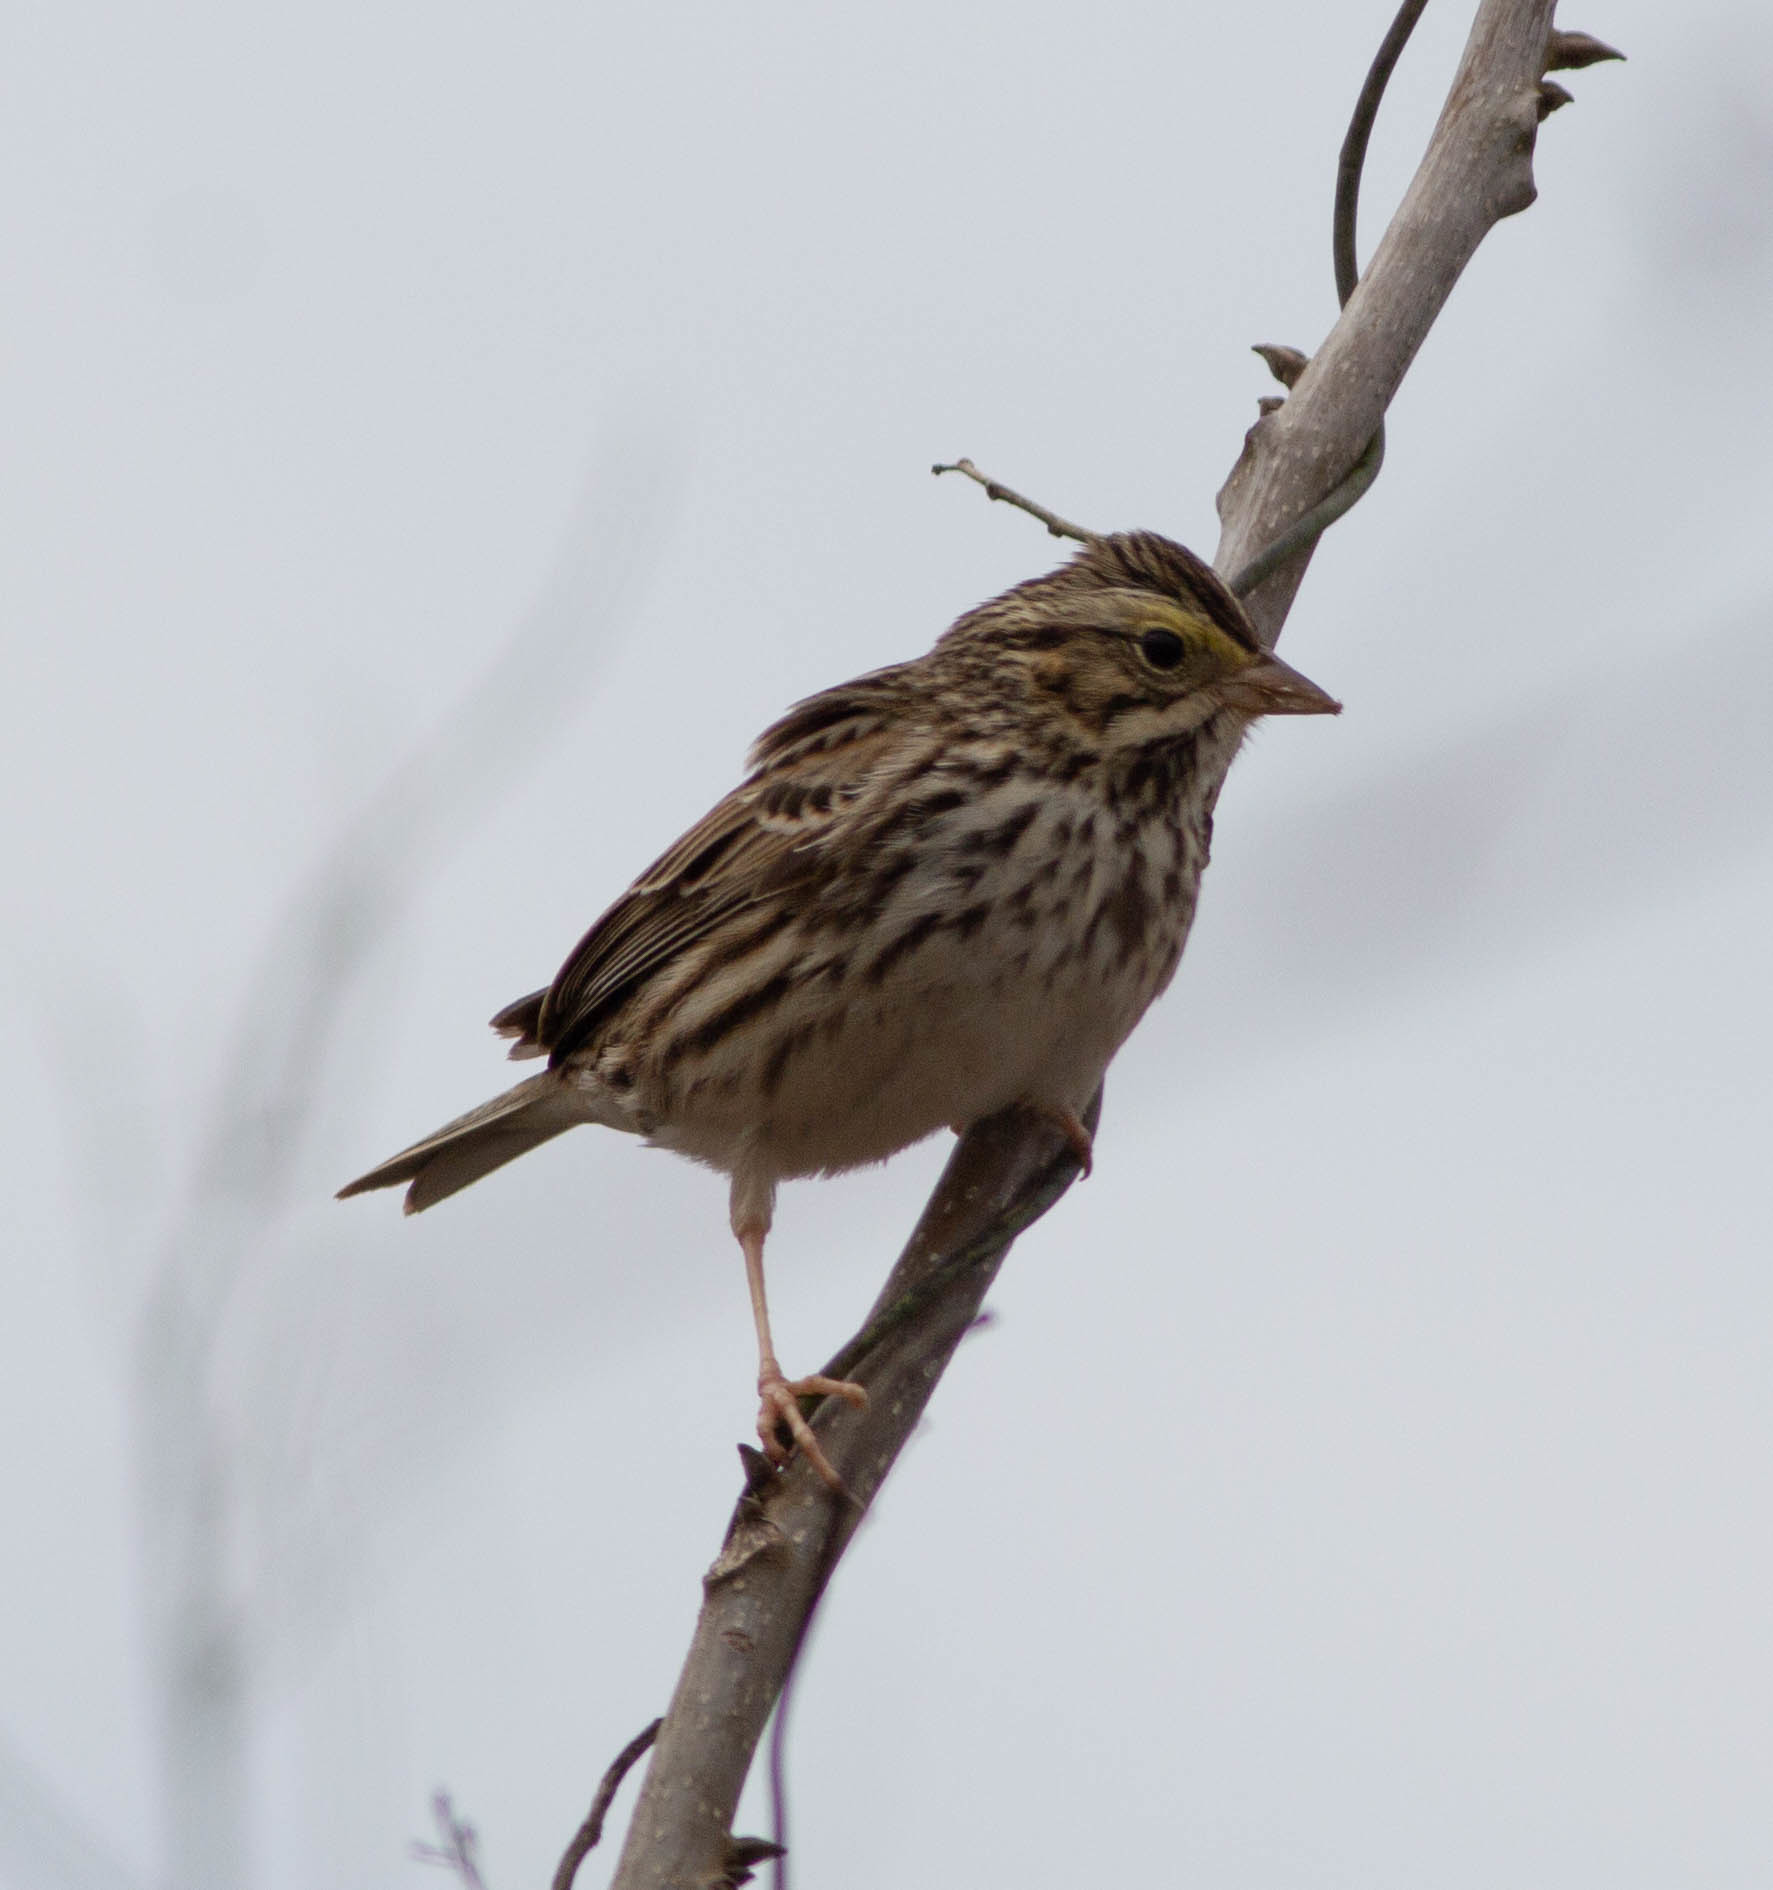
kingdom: Animalia
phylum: Chordata
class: Aves
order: Passeriformes
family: Passerellidae
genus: Passerculus
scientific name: Passerculus sandwichensis
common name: Savannah sparrow
